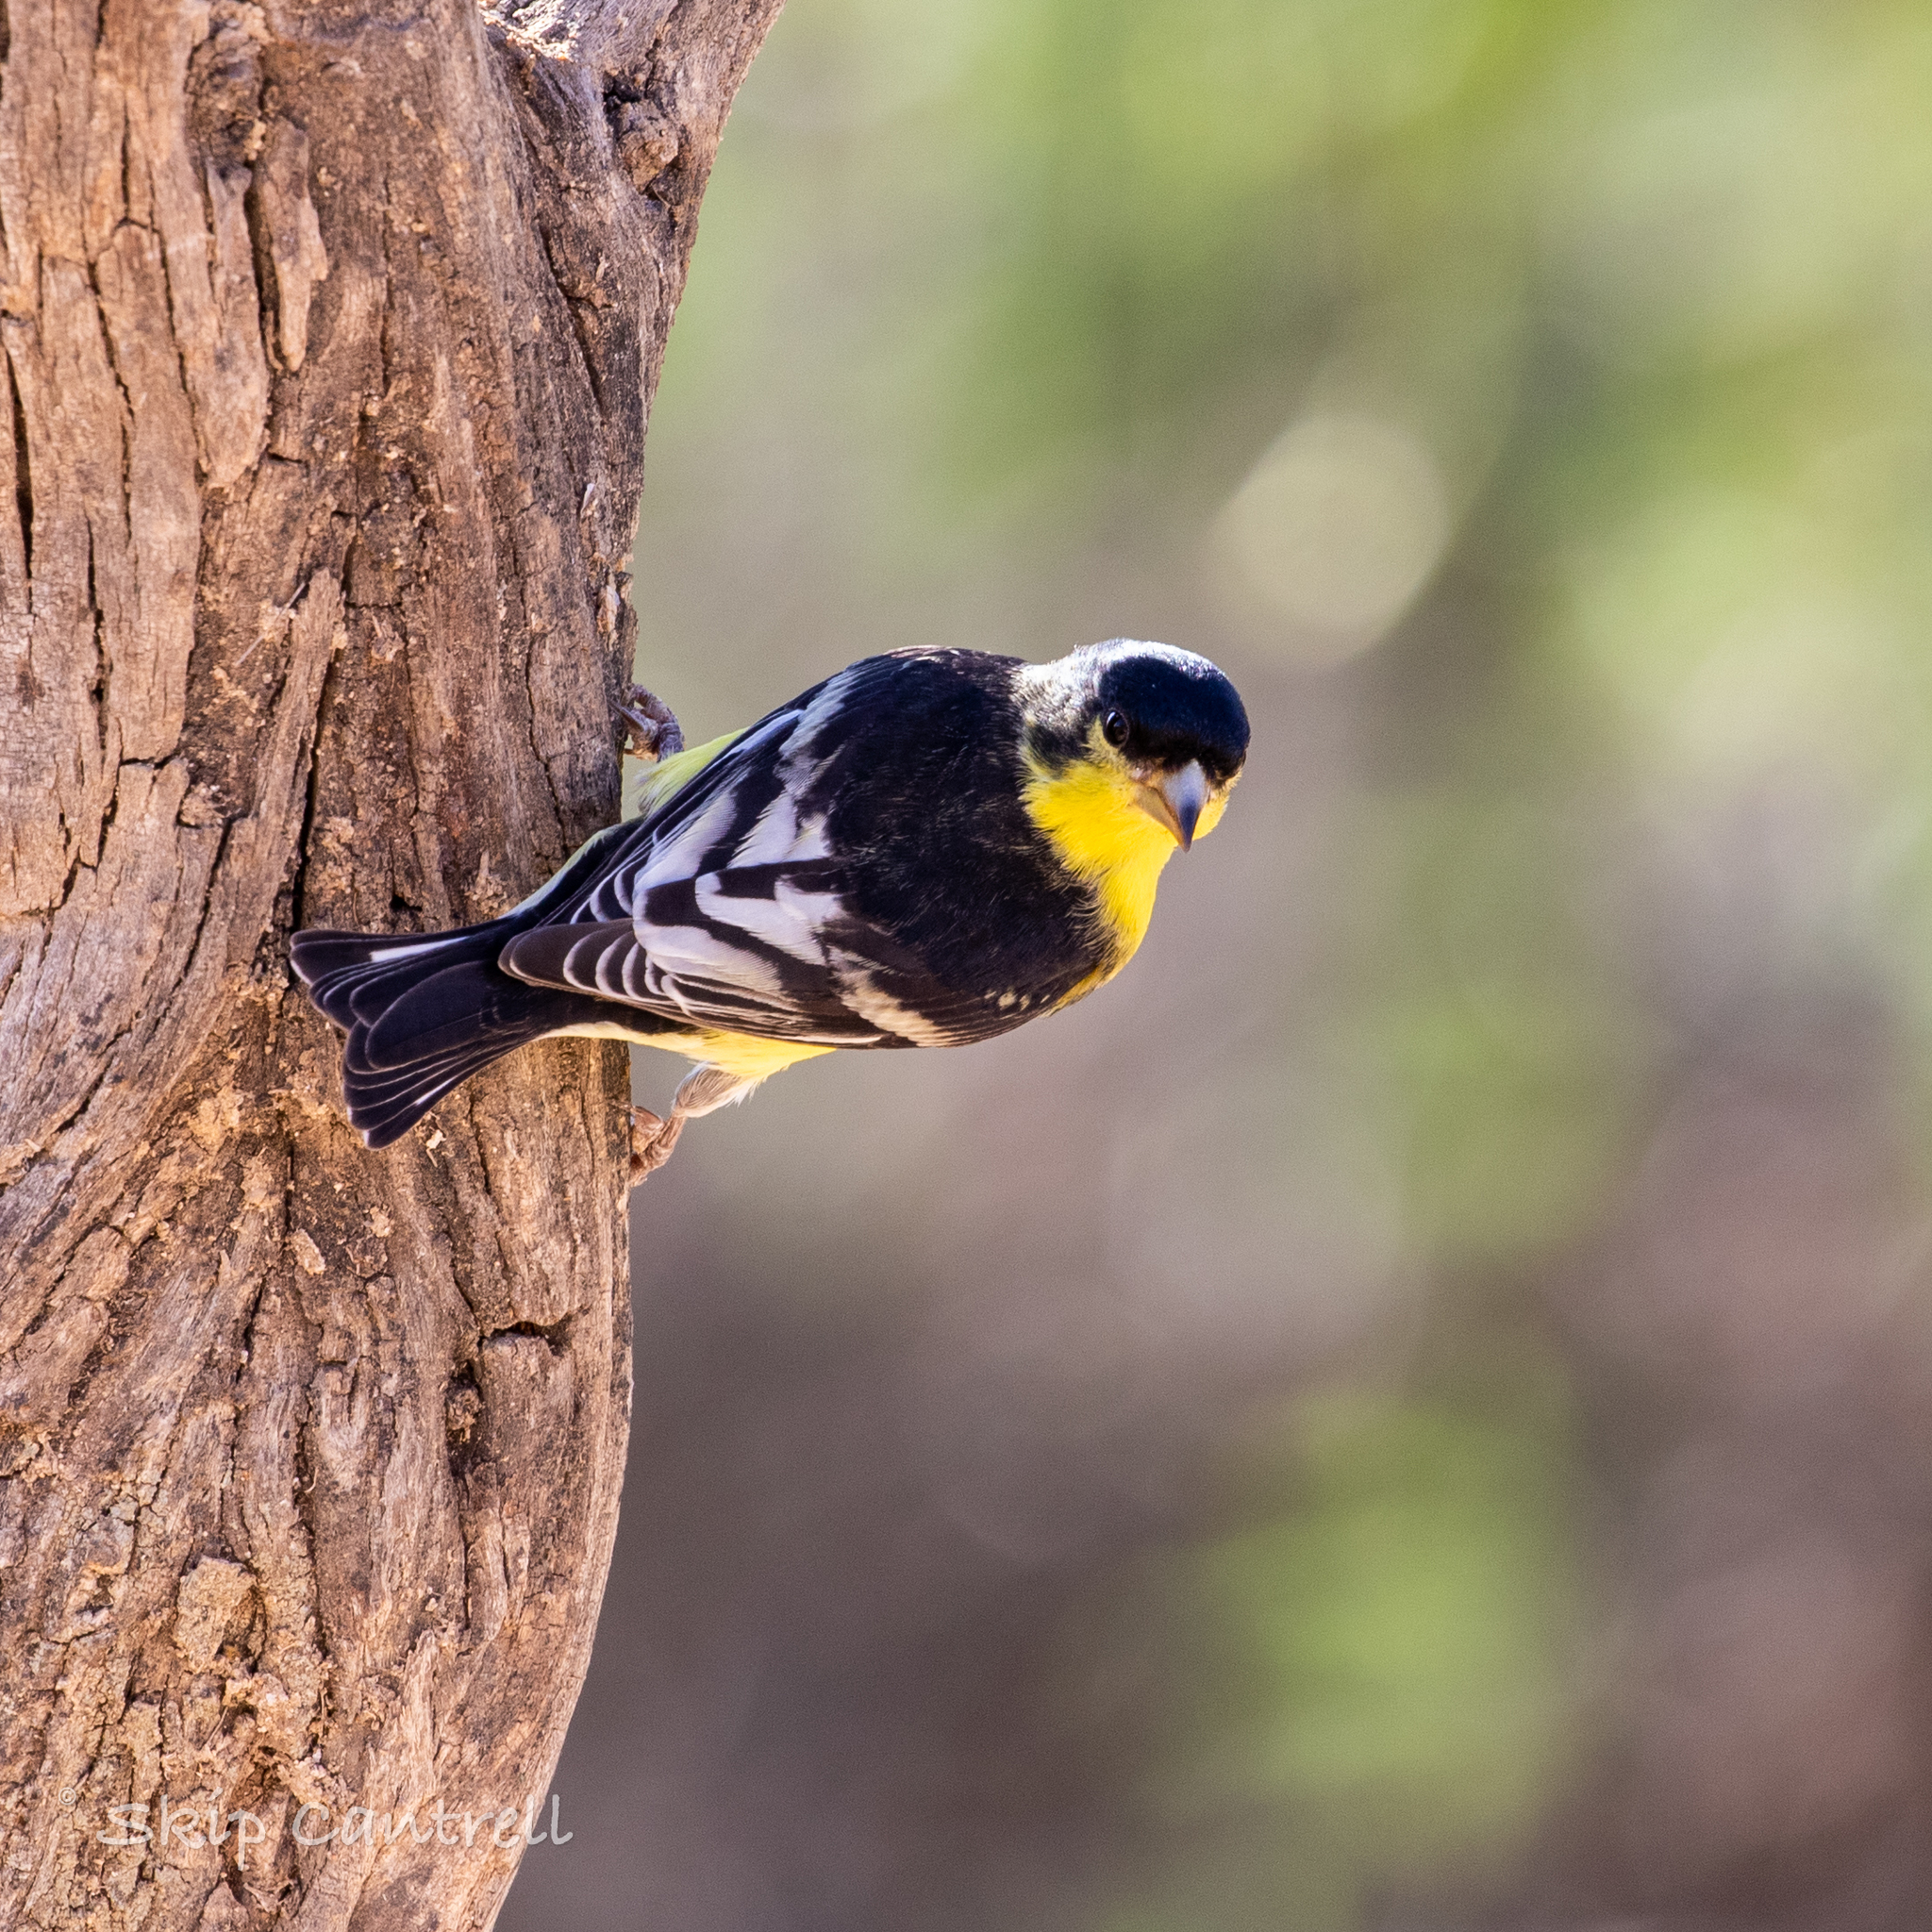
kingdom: Animalia
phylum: Chordata
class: Aves
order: Passeriformes
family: Fringillidae
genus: Spinus
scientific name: Spinus psaltria
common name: Lesser goldfinch
